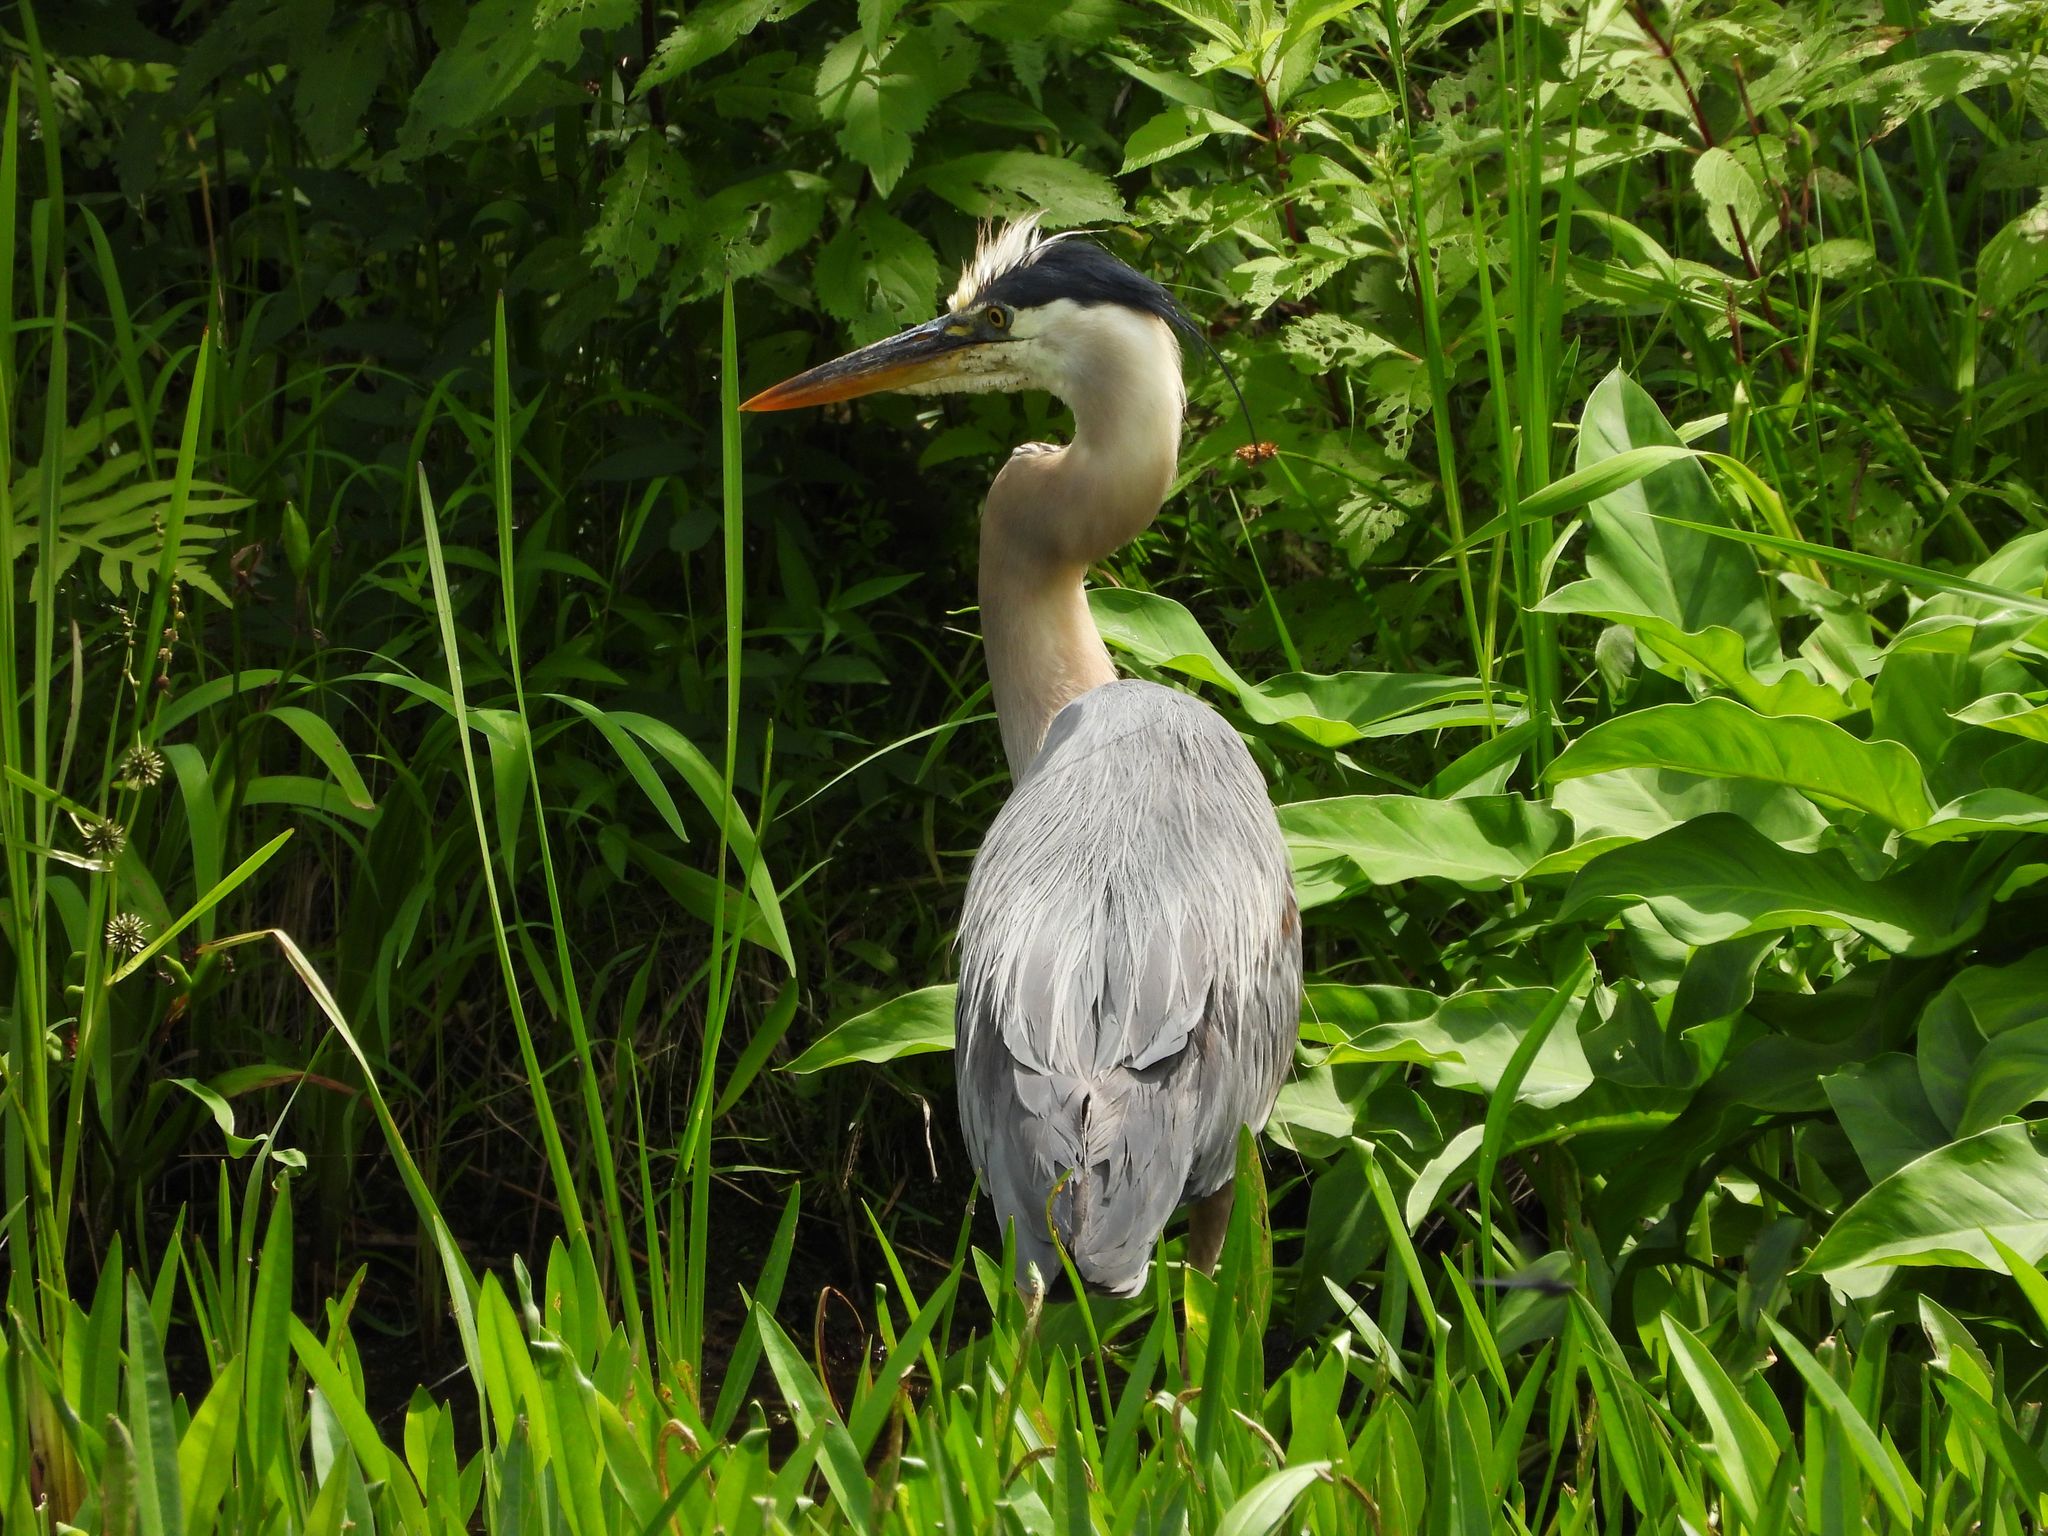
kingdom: Animalia
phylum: Chordata
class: Aves
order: Pelecaniformes
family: Ardeidae
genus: Ardea
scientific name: Ardea herodias
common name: Great blue heron
